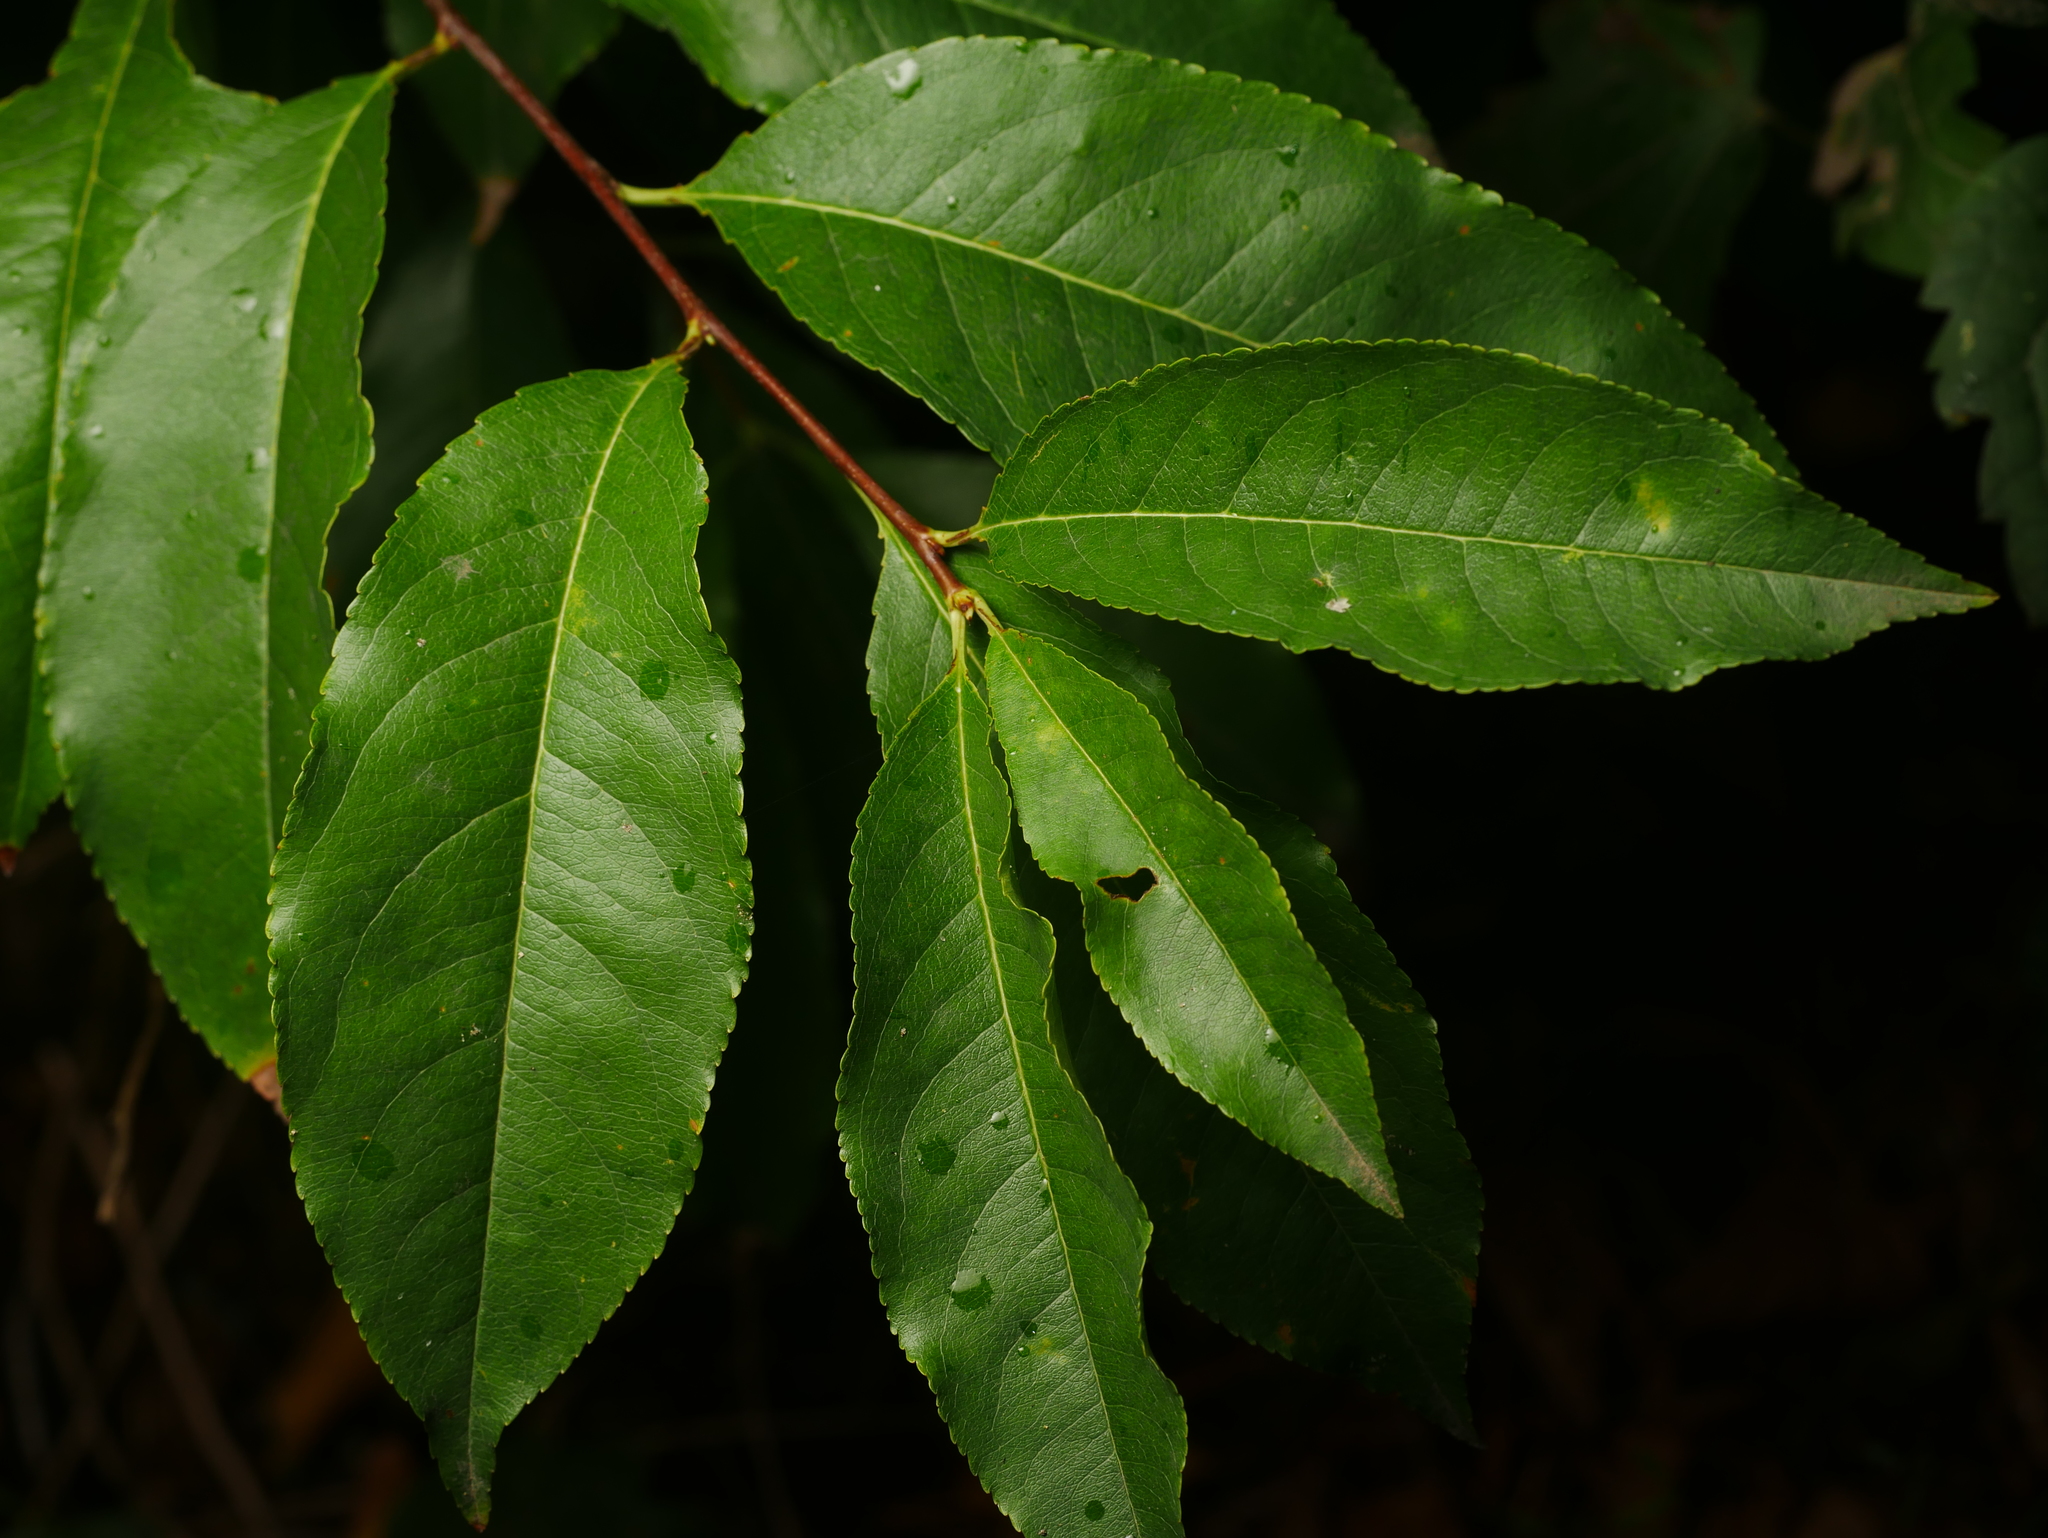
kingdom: Plantae
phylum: Tracheophyta
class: Magnoliopsida
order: Rosales
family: Rosaceae
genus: Prunus
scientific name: Prunus serotina
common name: Black cherry
